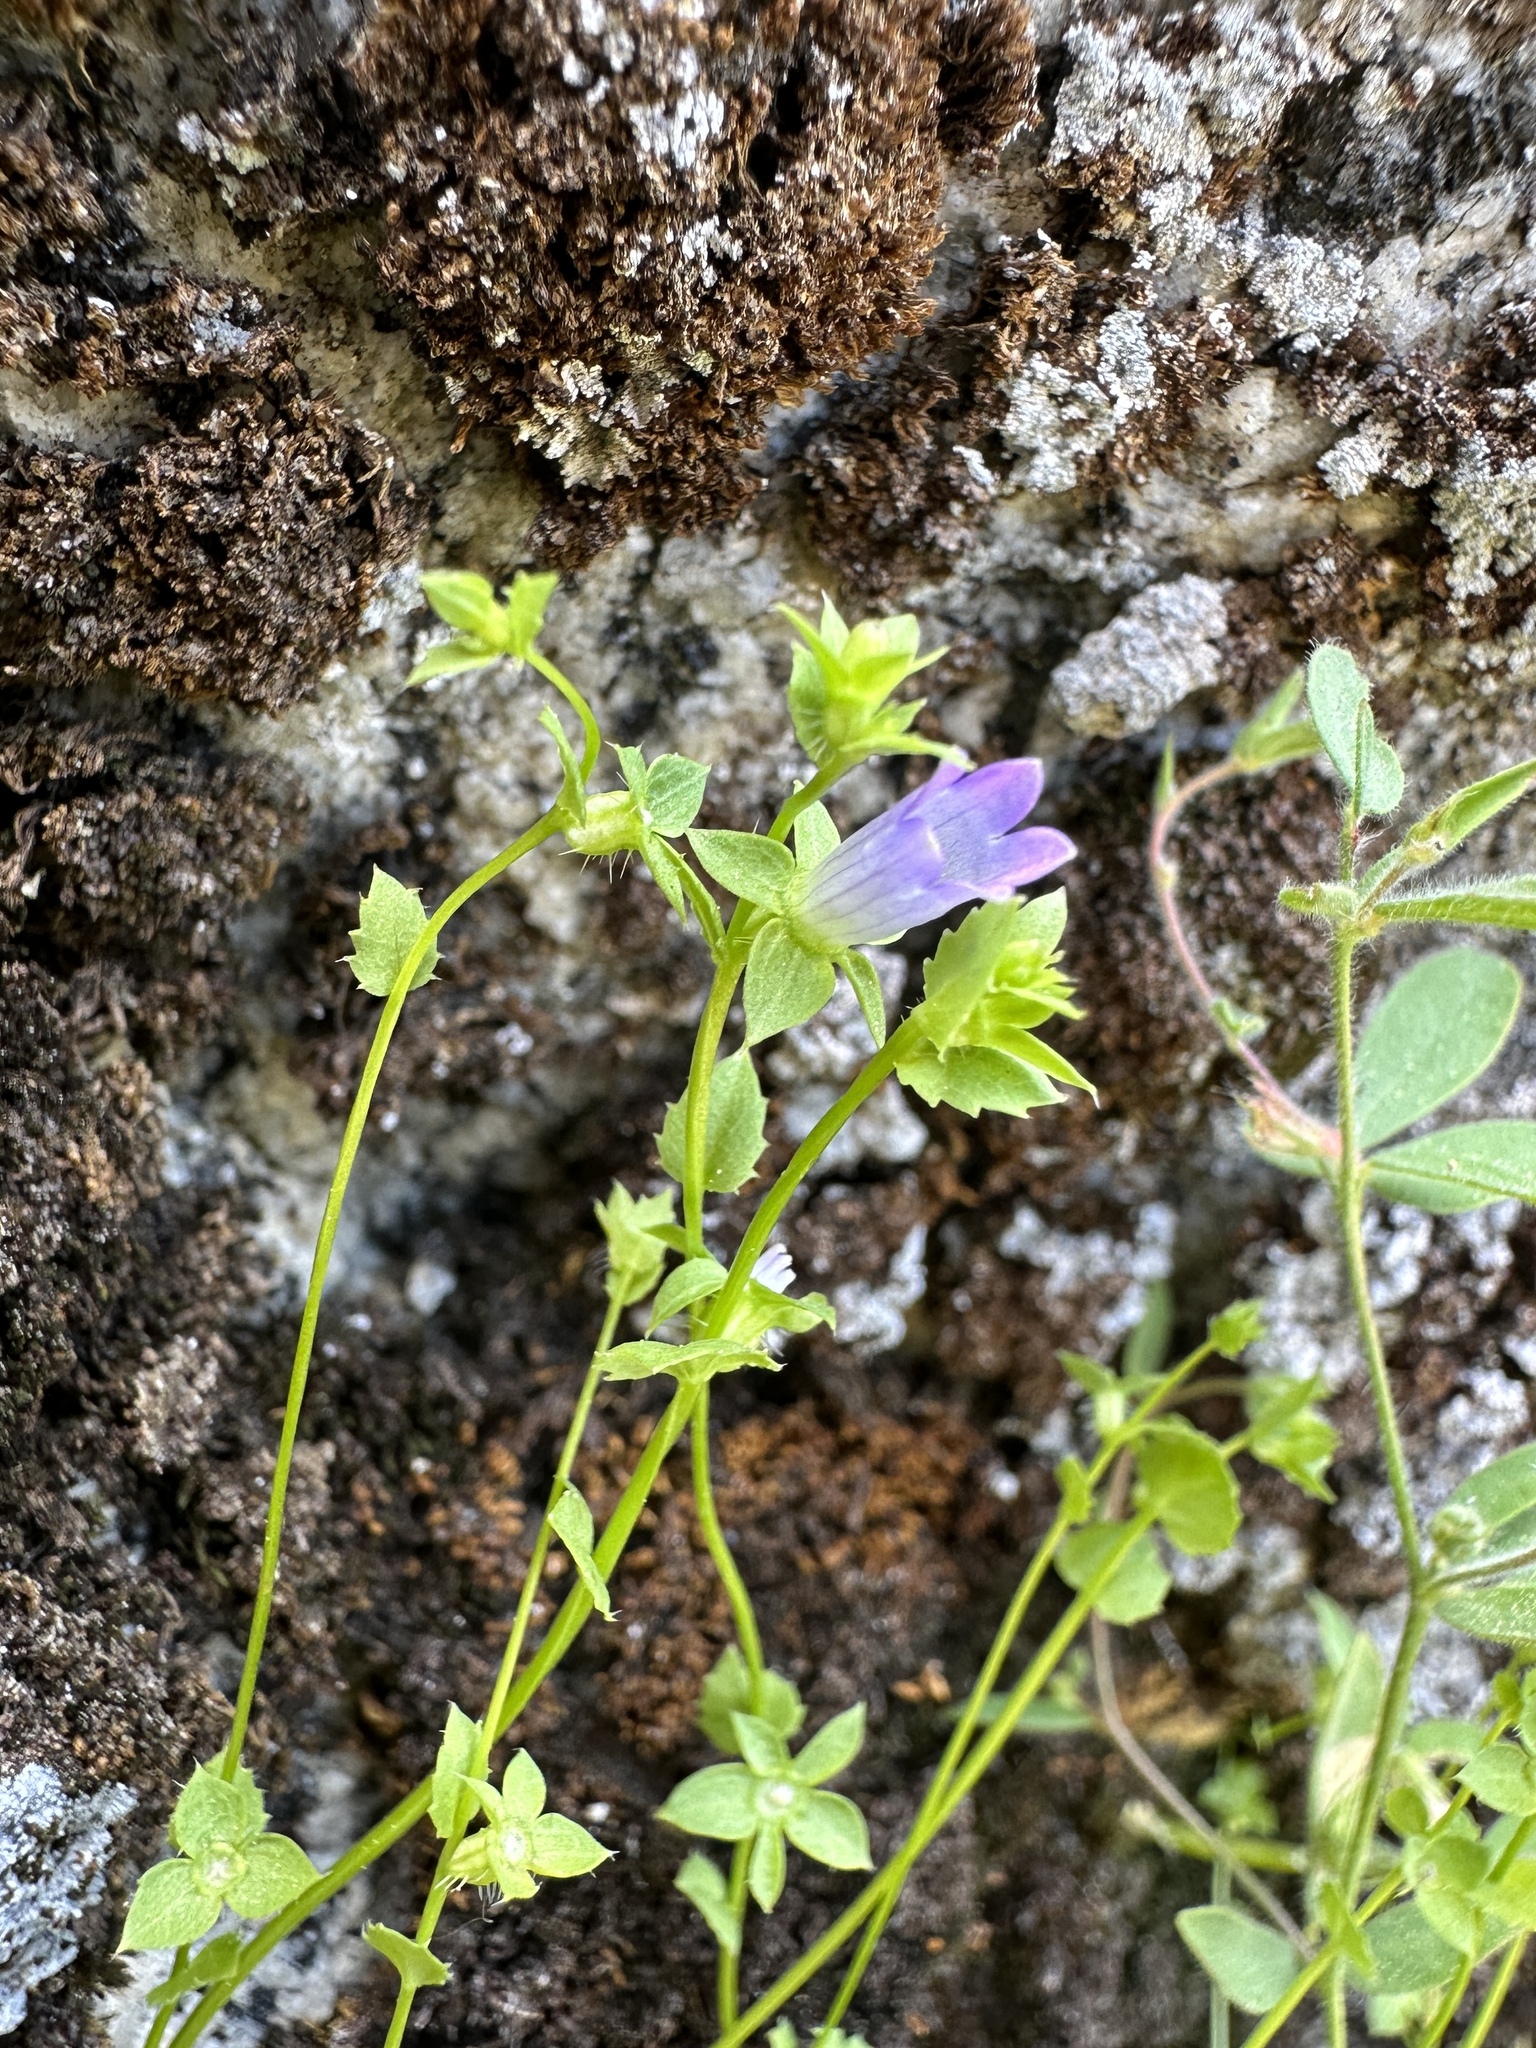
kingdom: Plantae
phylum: Tracheophyta
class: Magnoliopsida
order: Asterales
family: Campanulaceae
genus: Heterocodon
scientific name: Heterocodon rariflorum
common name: Rareflower heterocodon
